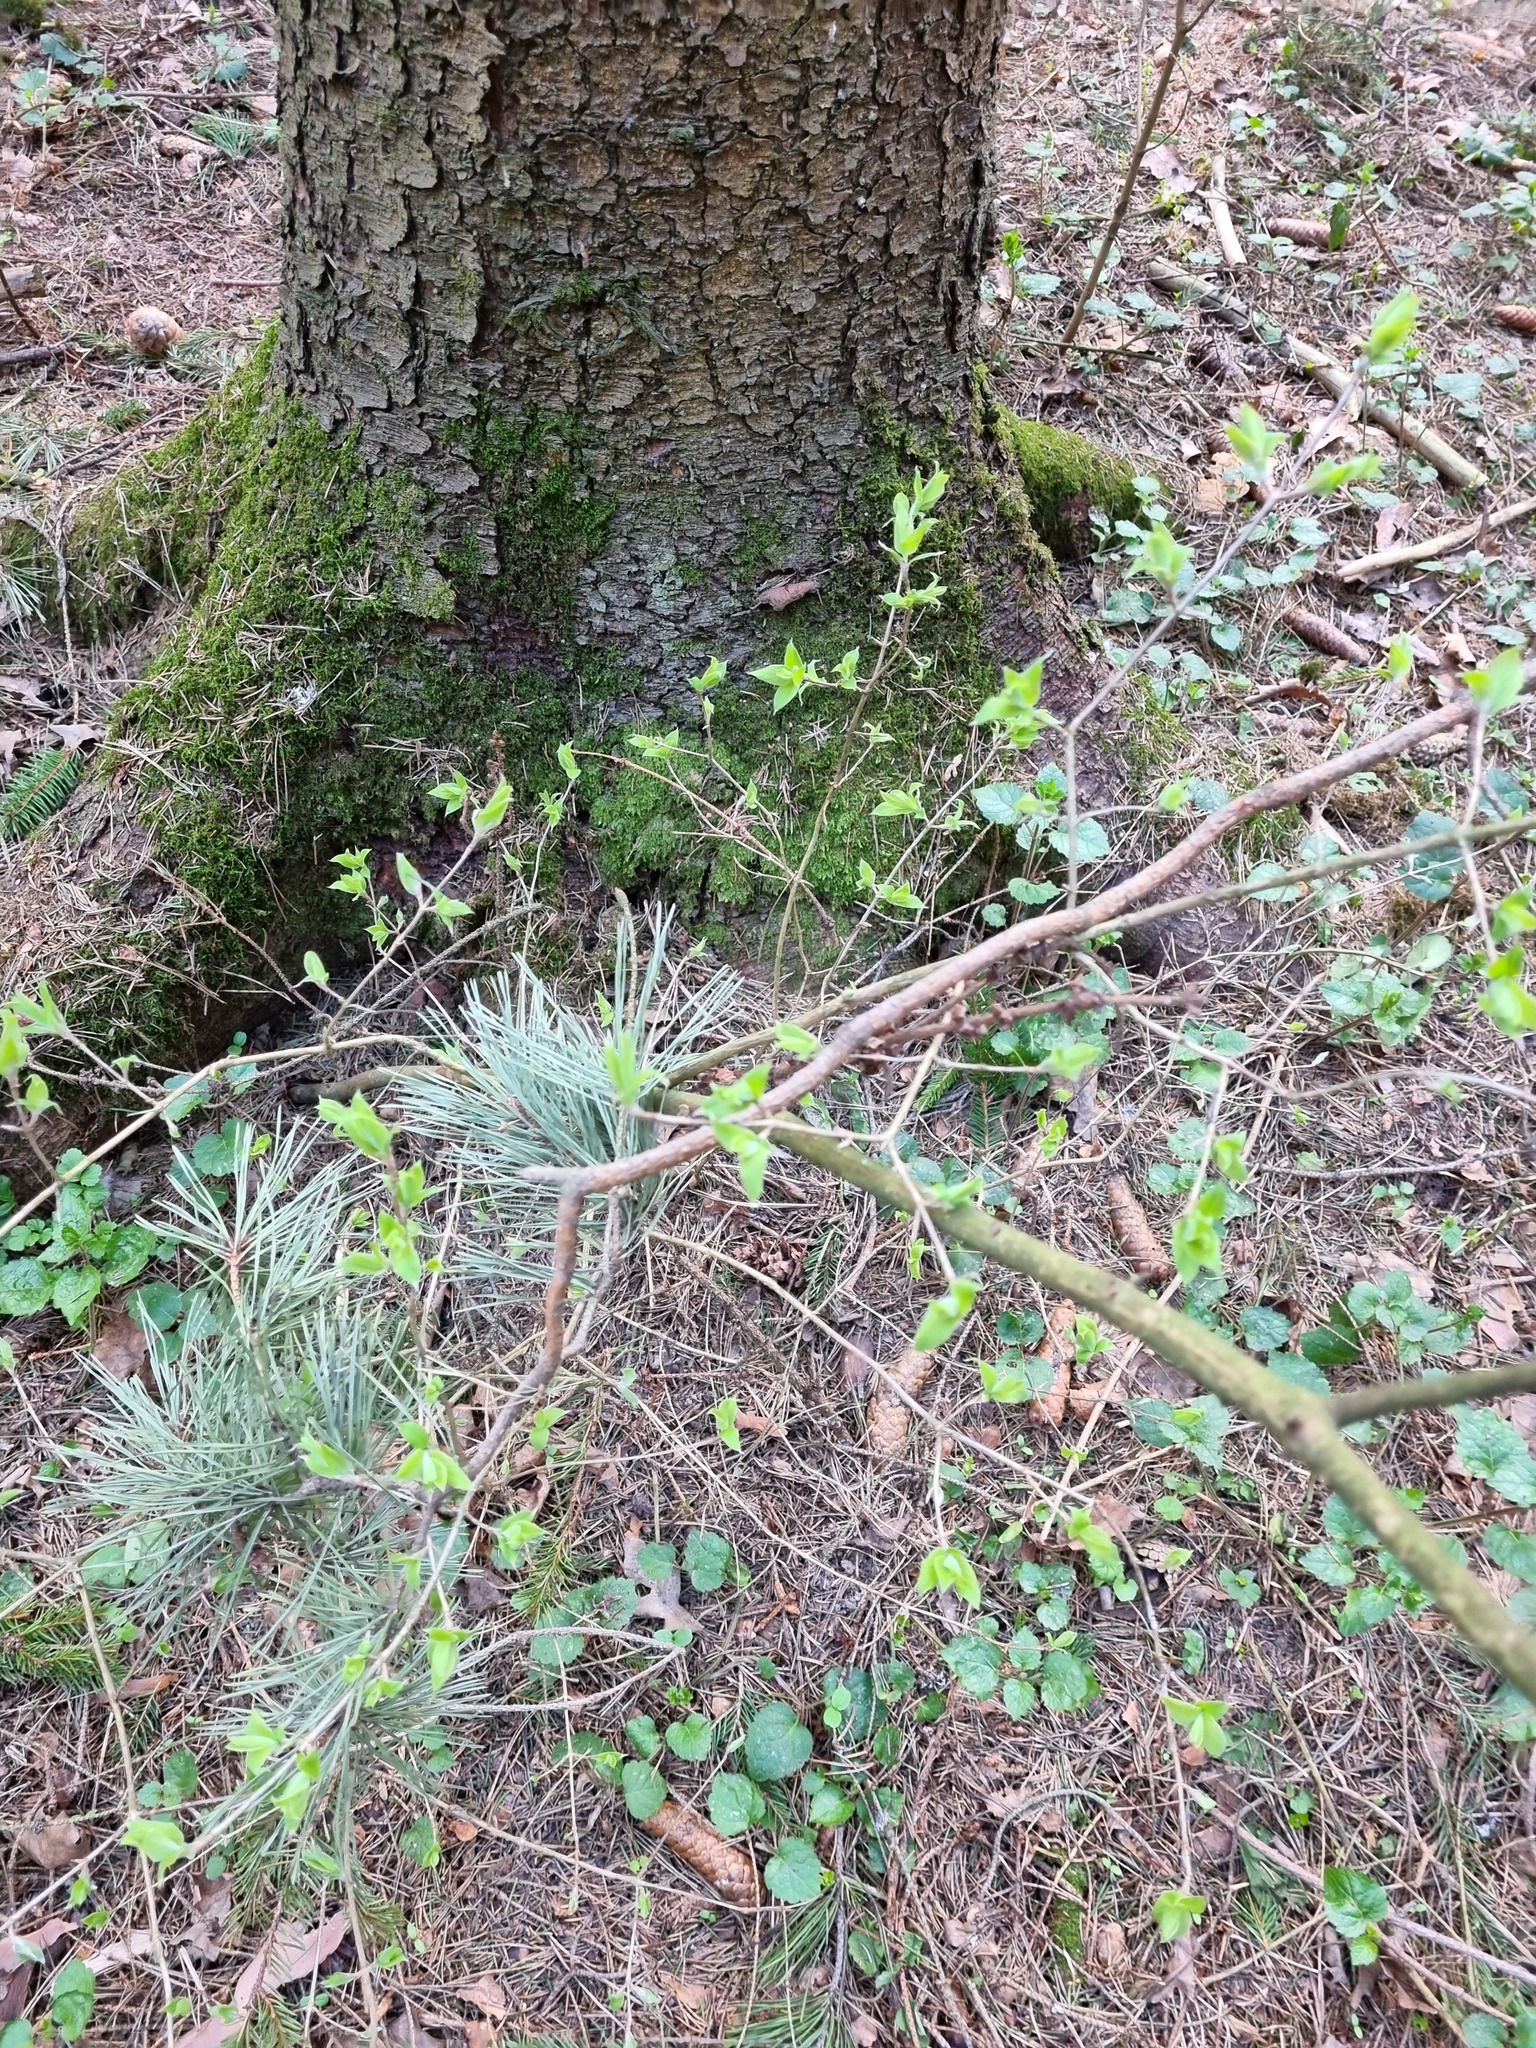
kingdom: Plantae
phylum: Tracheophyta
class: Magnoliopsida
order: Dipsacales
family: Caprifoliaceae
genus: Lonicera
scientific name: Lonicera xylosteum
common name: Fly honeysuckle
